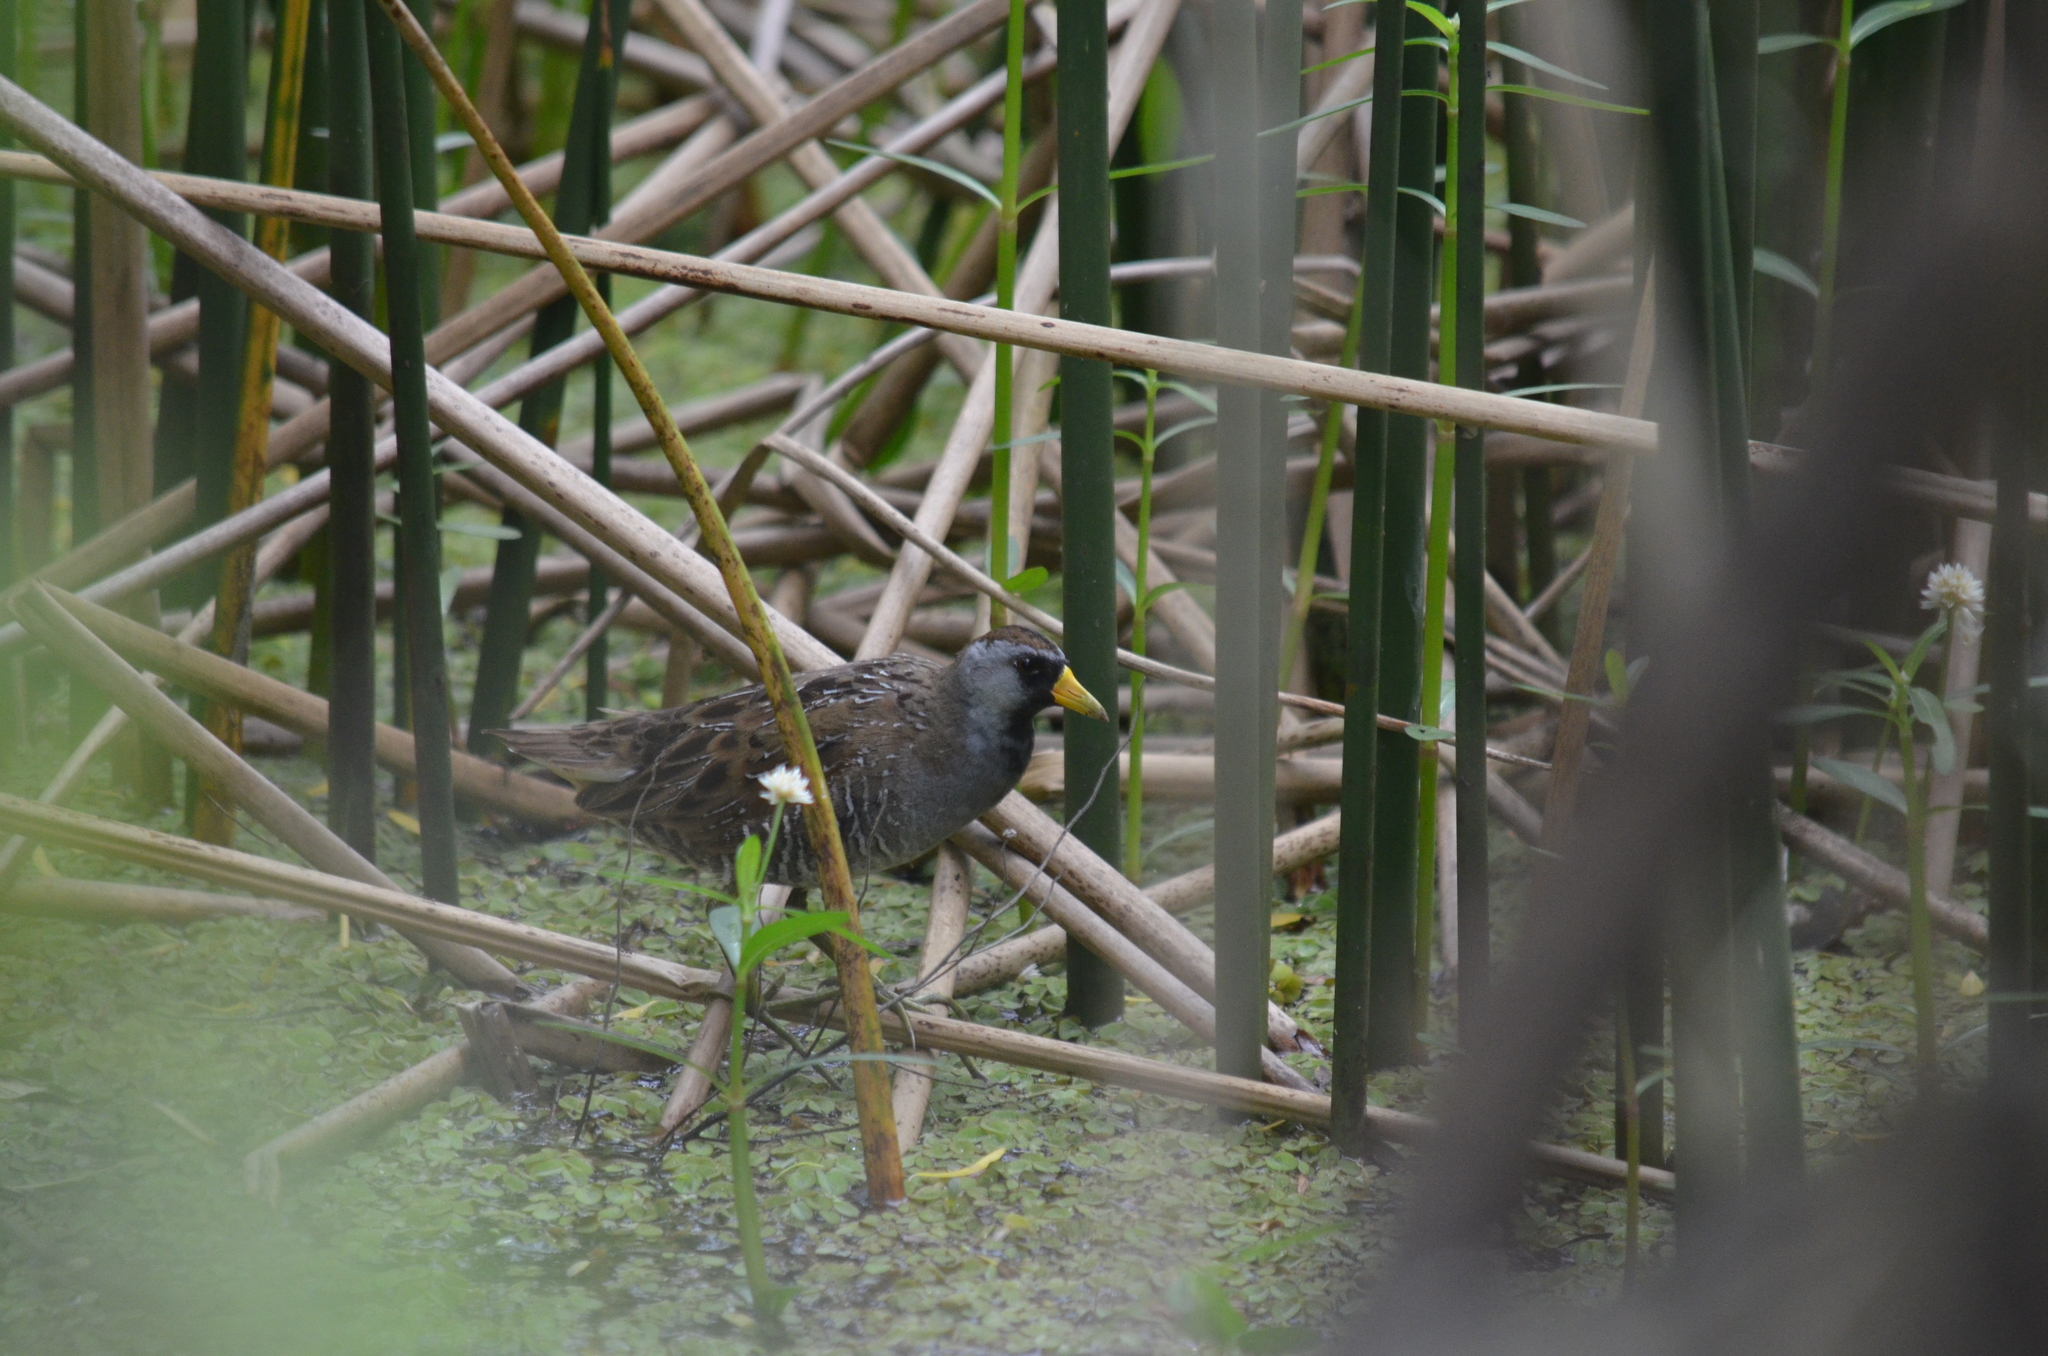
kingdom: Animalia
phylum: Chordata
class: Aves
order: Gruiformes
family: Rallidae
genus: Porzana
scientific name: Porzana carolina
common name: Sora
